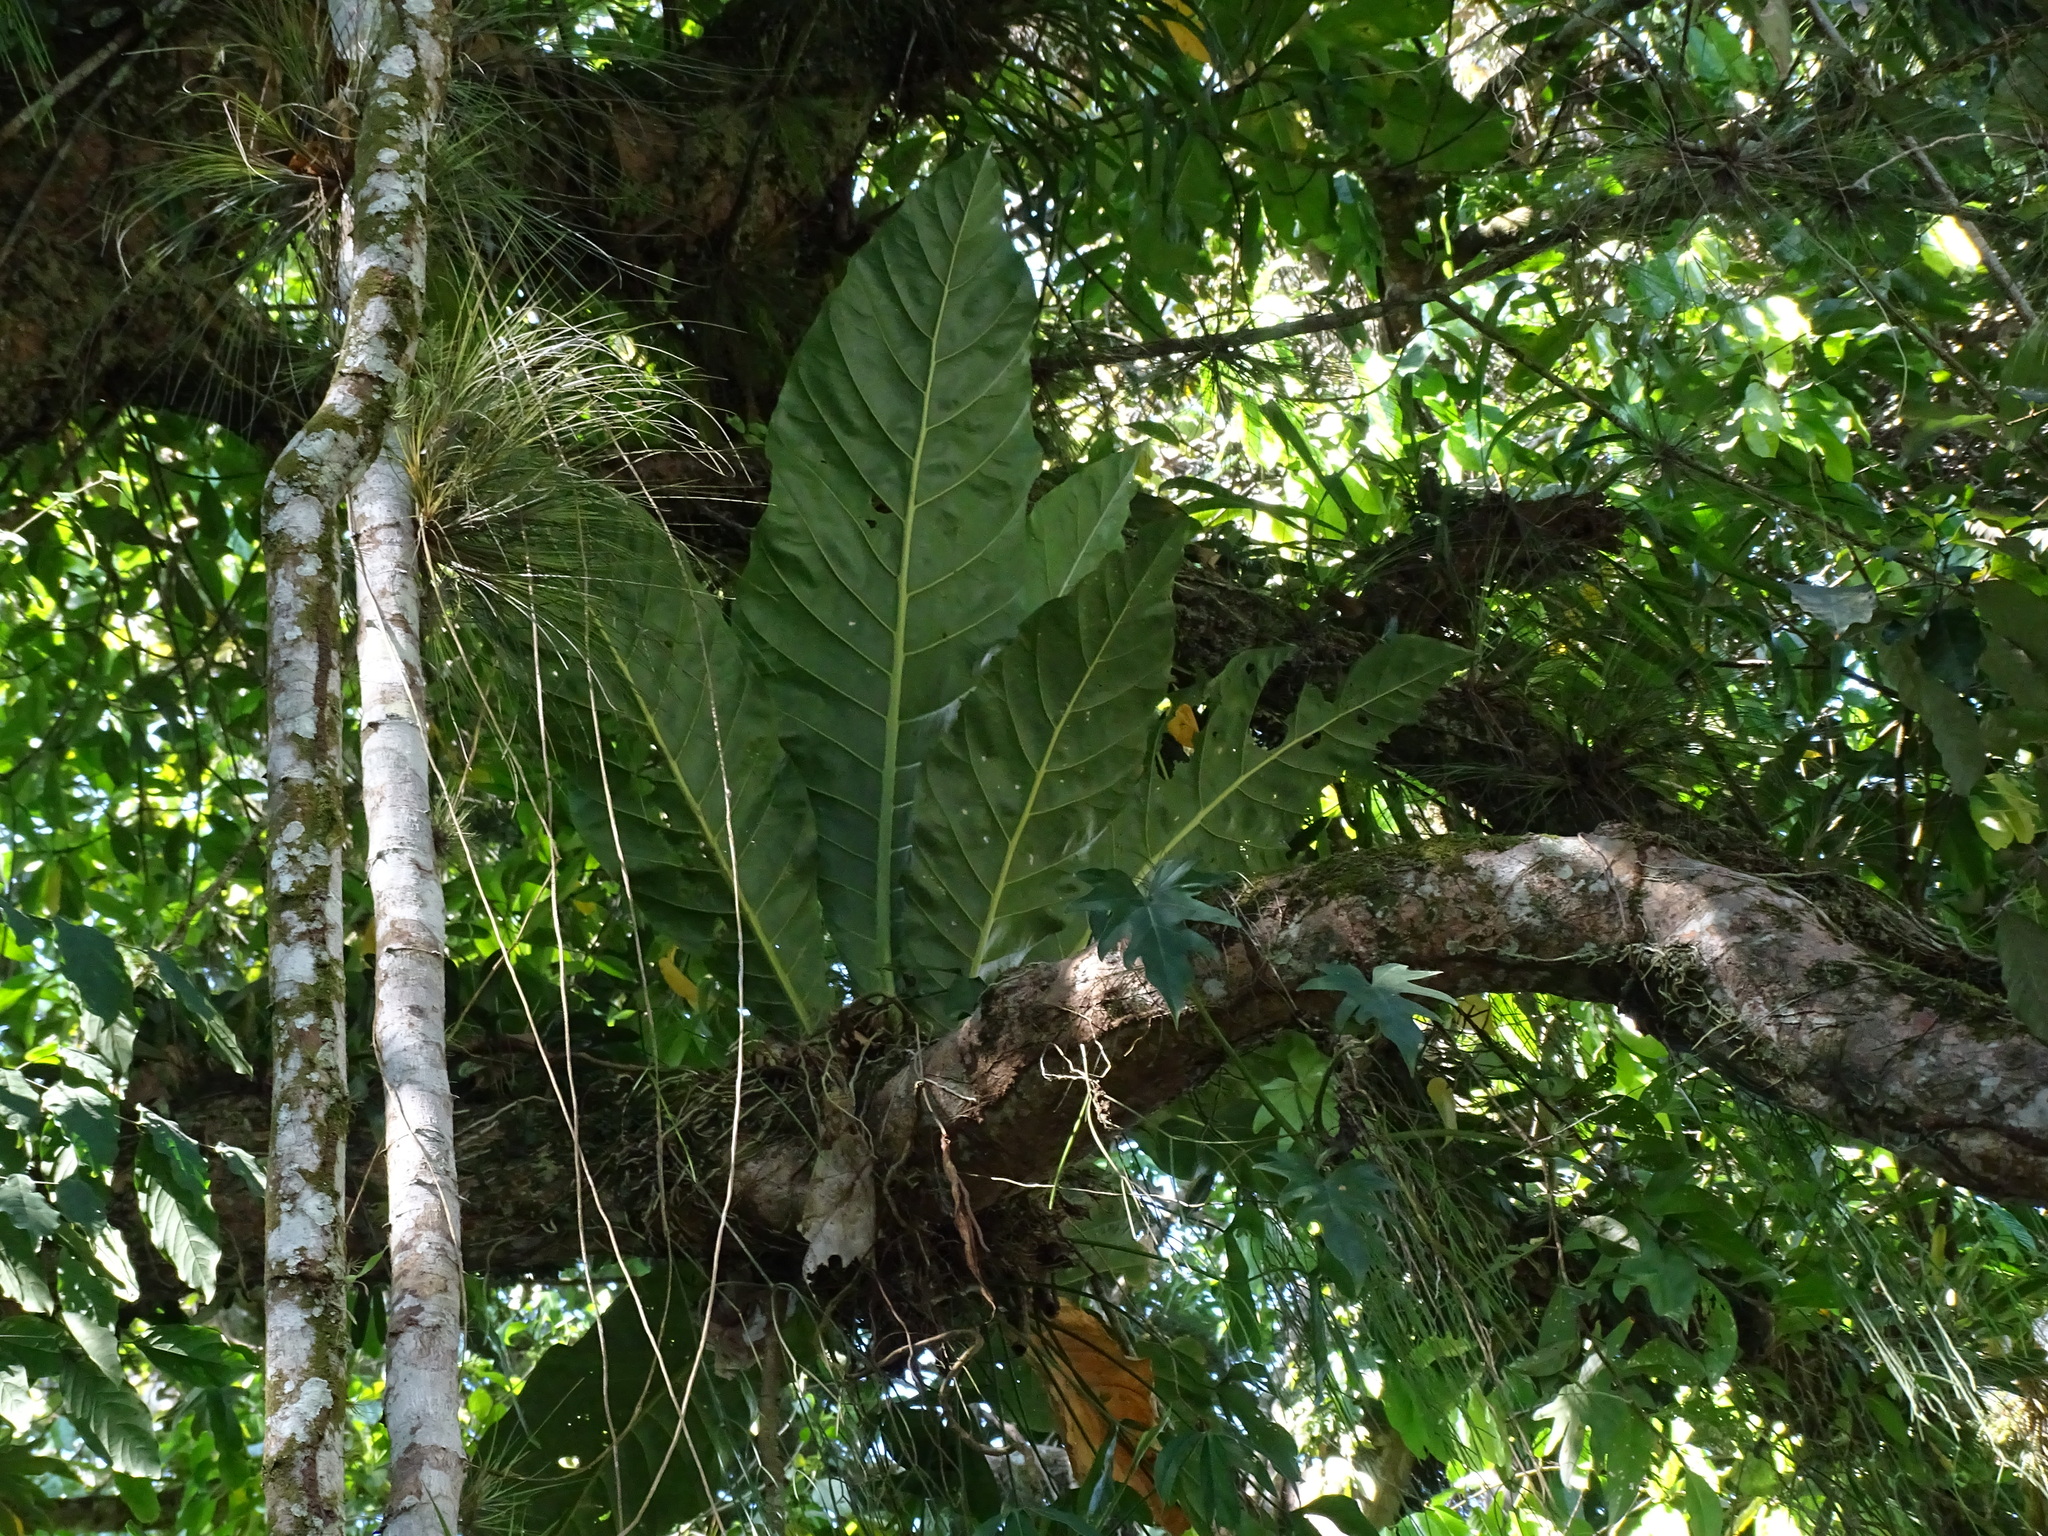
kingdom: Plantae
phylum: Tracheophyta
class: Liliopsida
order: Alismatales
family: Araceae
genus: Anthurium
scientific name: Anthurium salvinii
